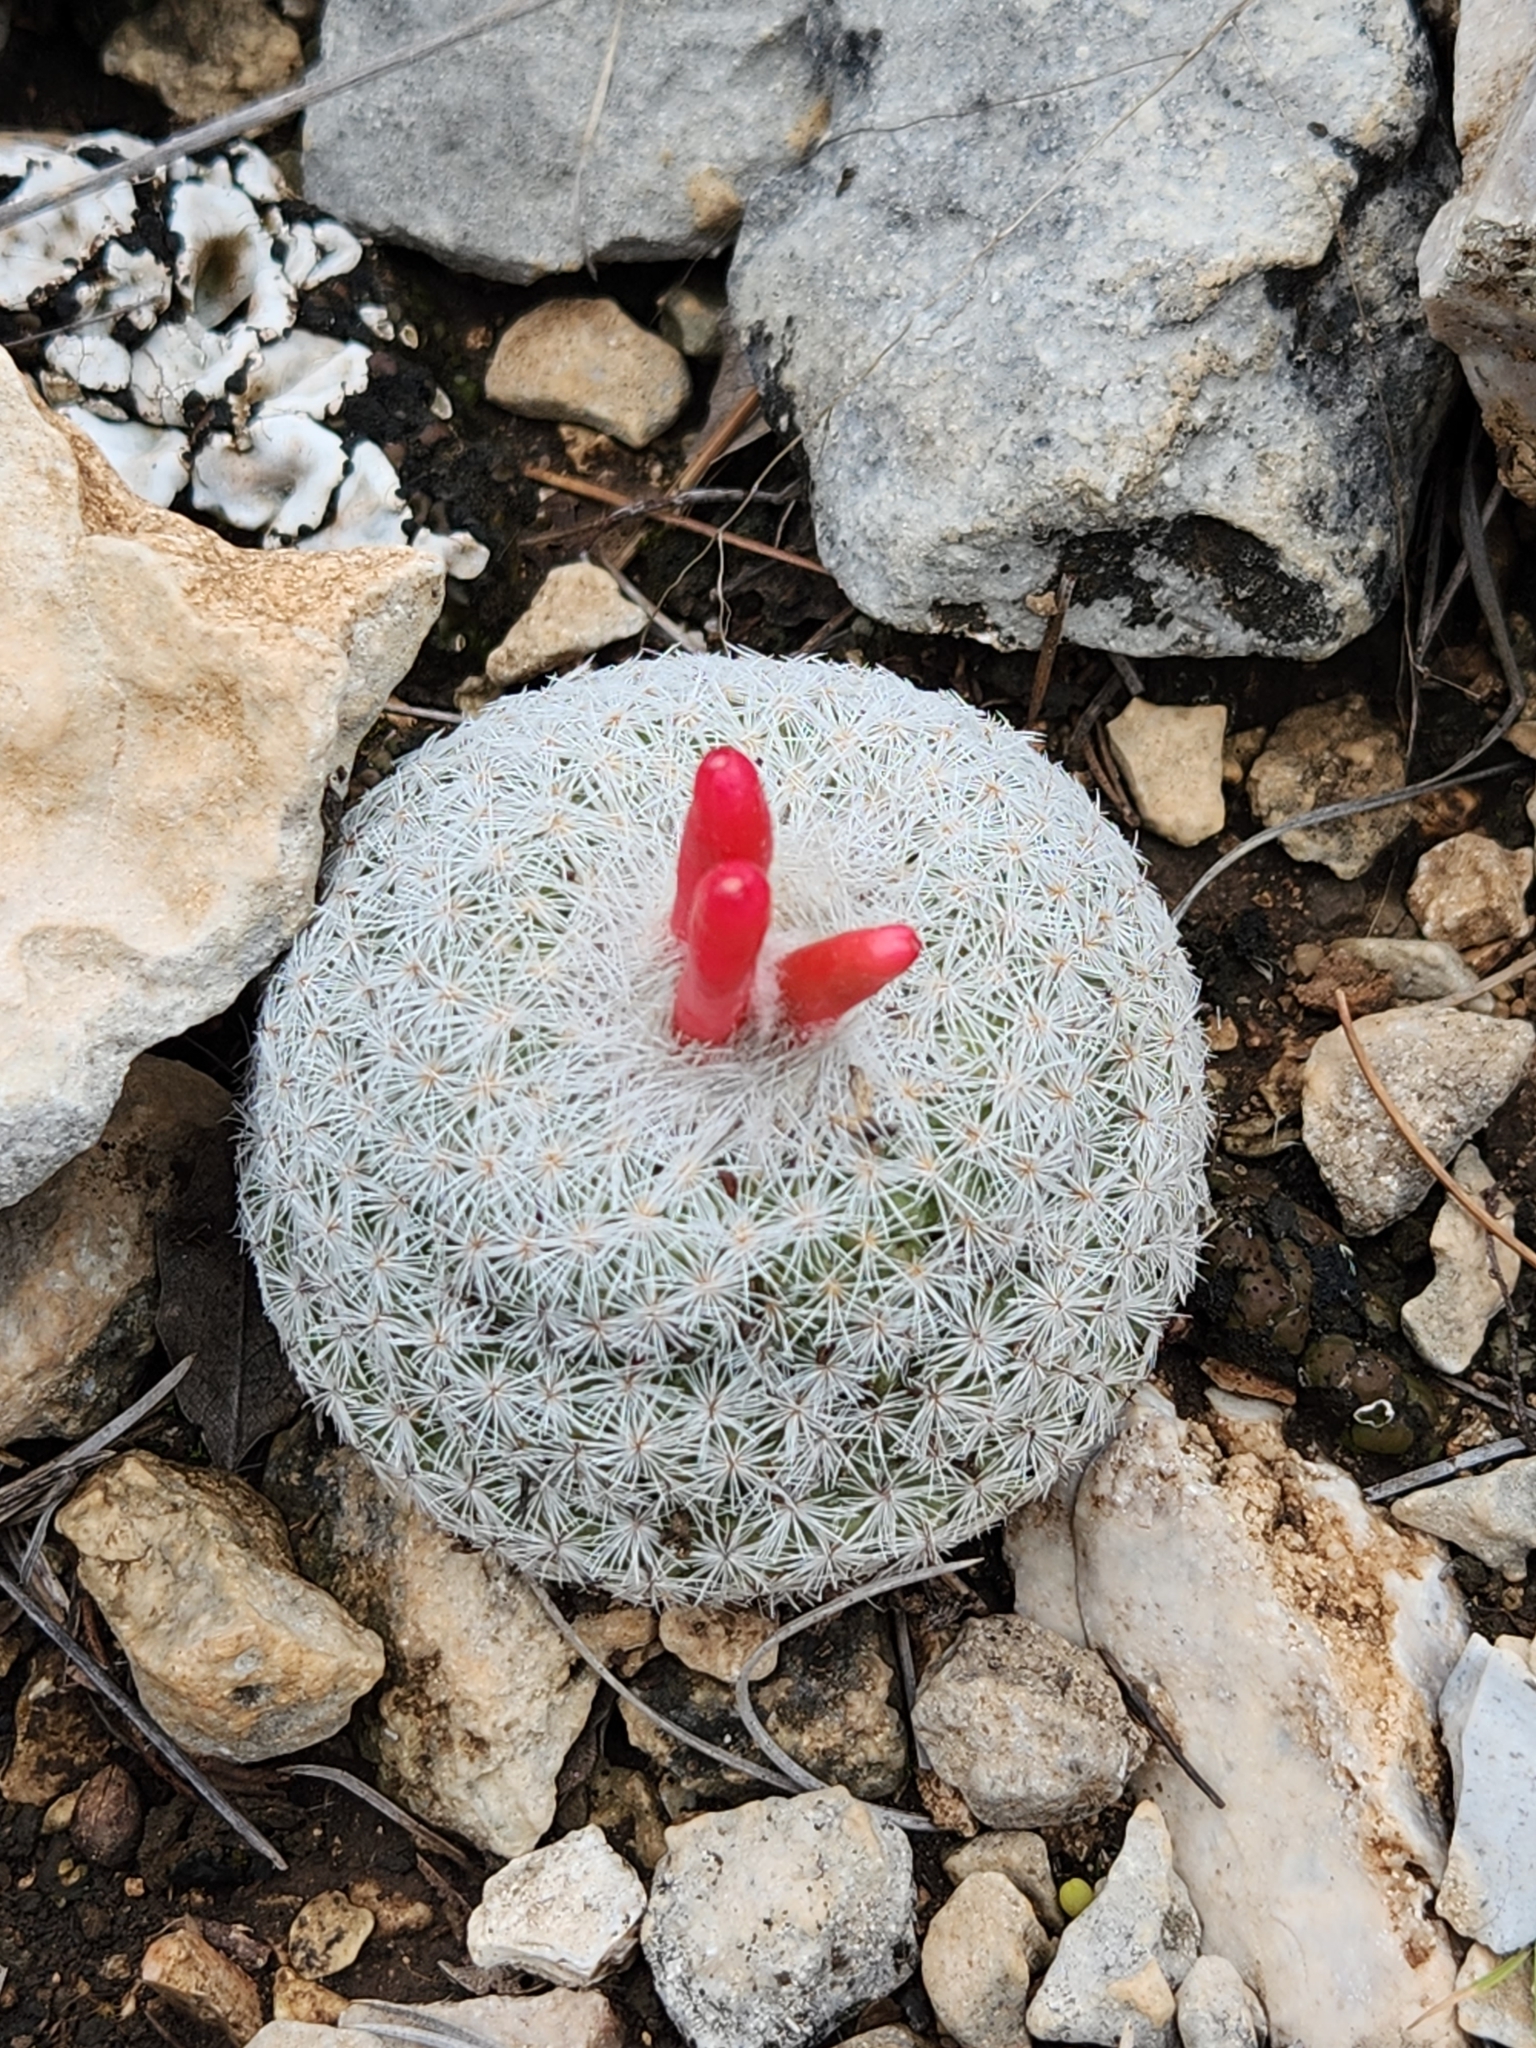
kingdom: Plantae
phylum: Tracheophyta
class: Magnoliopsida
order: Caryophyllales
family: Cactaceae
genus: Epithelantha
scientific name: Epithelantha micromeris
